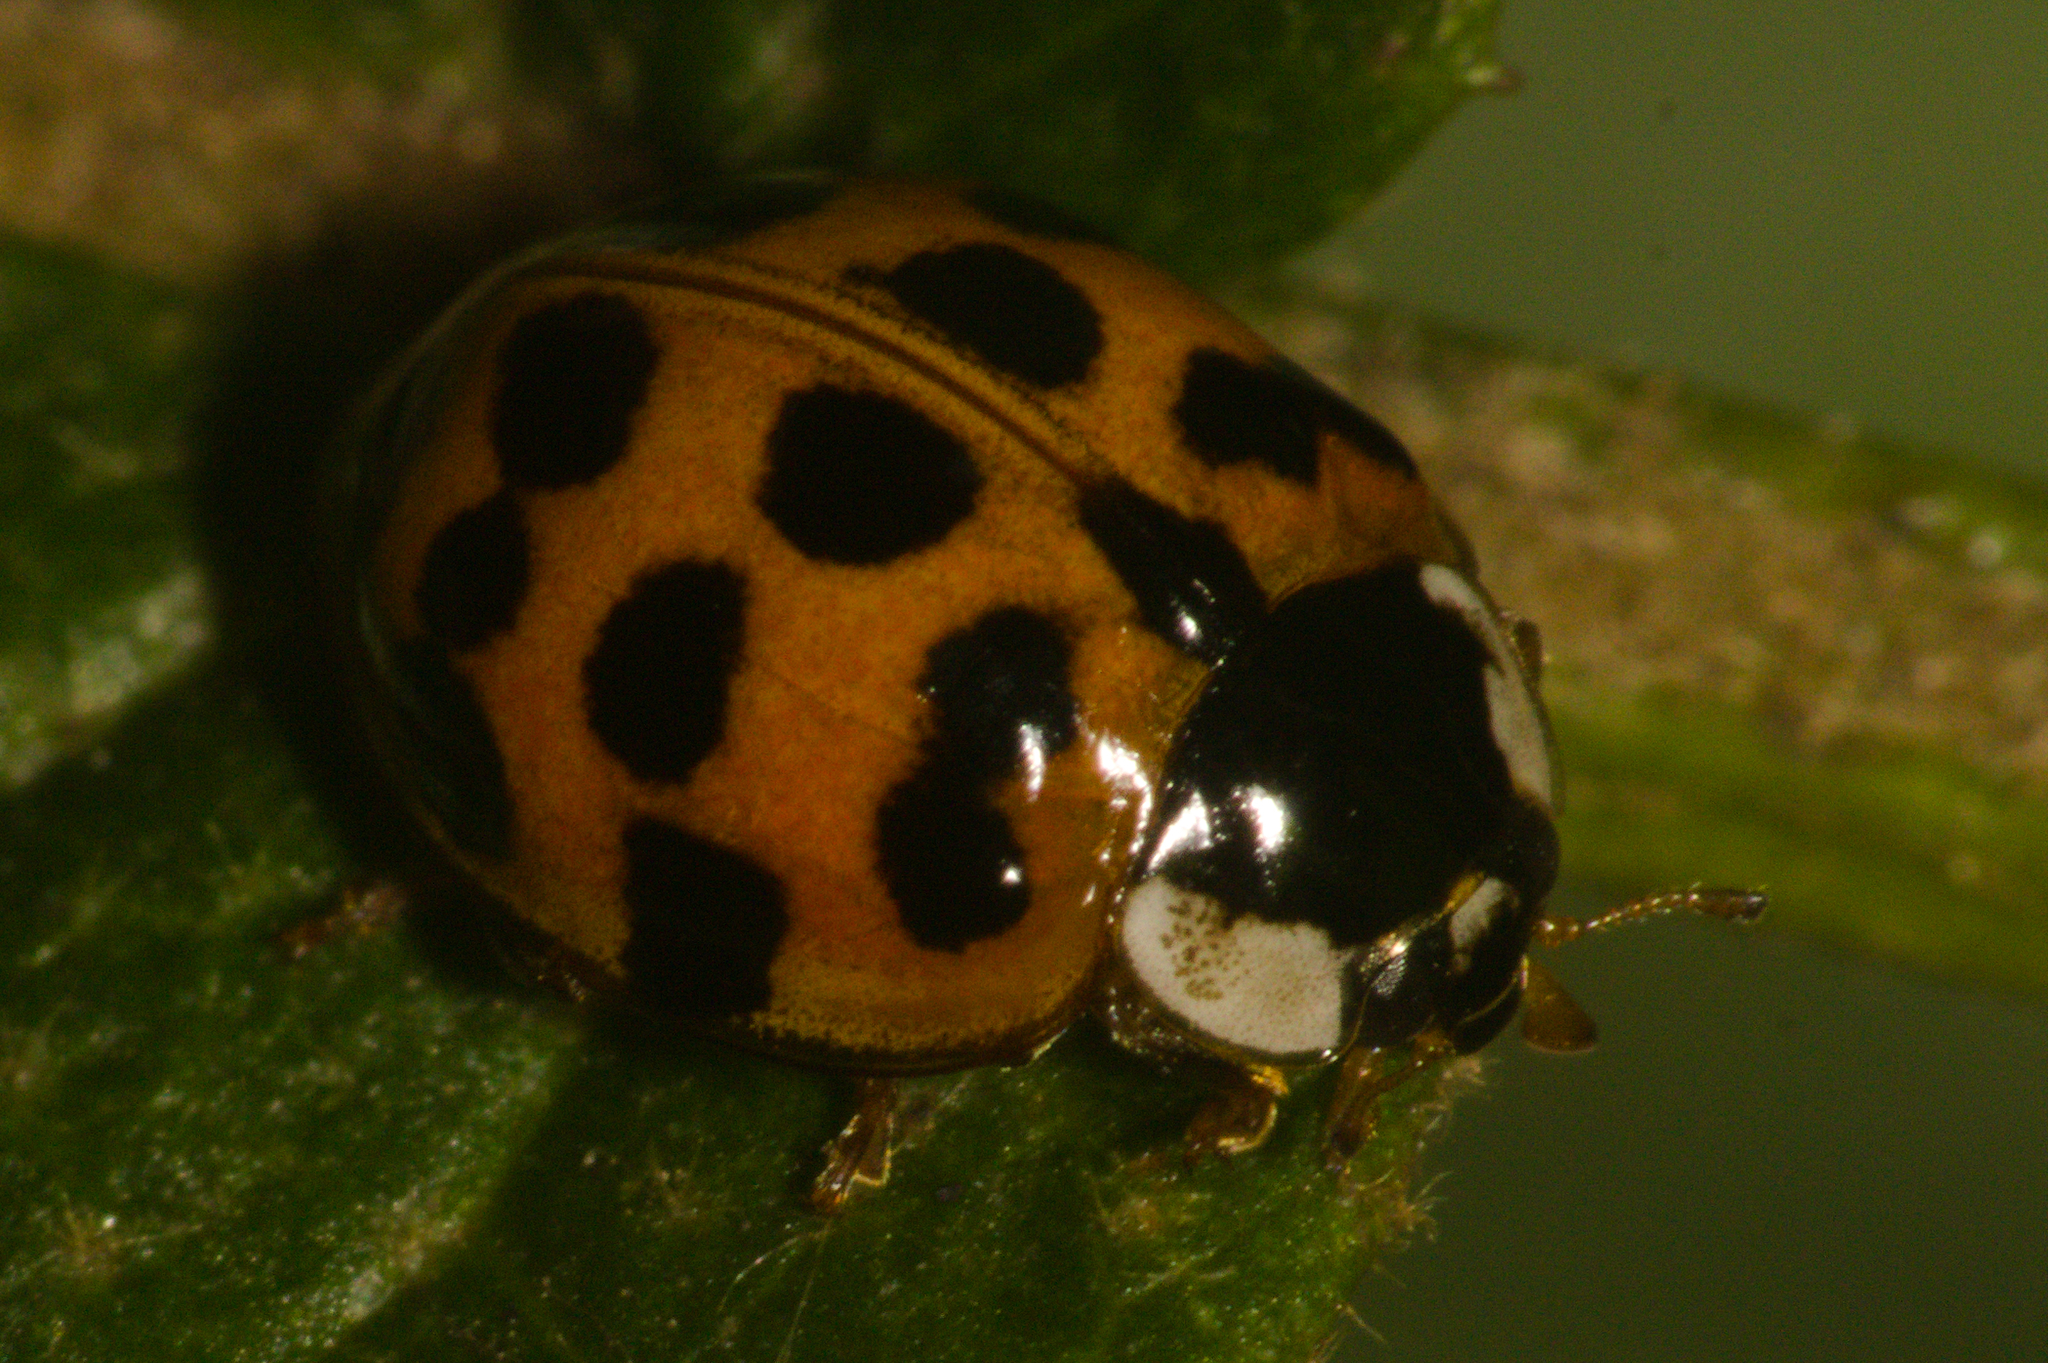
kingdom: Animalia
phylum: Arthropoda
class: Insecta
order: Coleoptera
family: Coccinellidae
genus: Harmonia
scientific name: Harmonia axyridis
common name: Harlequin ladybird
